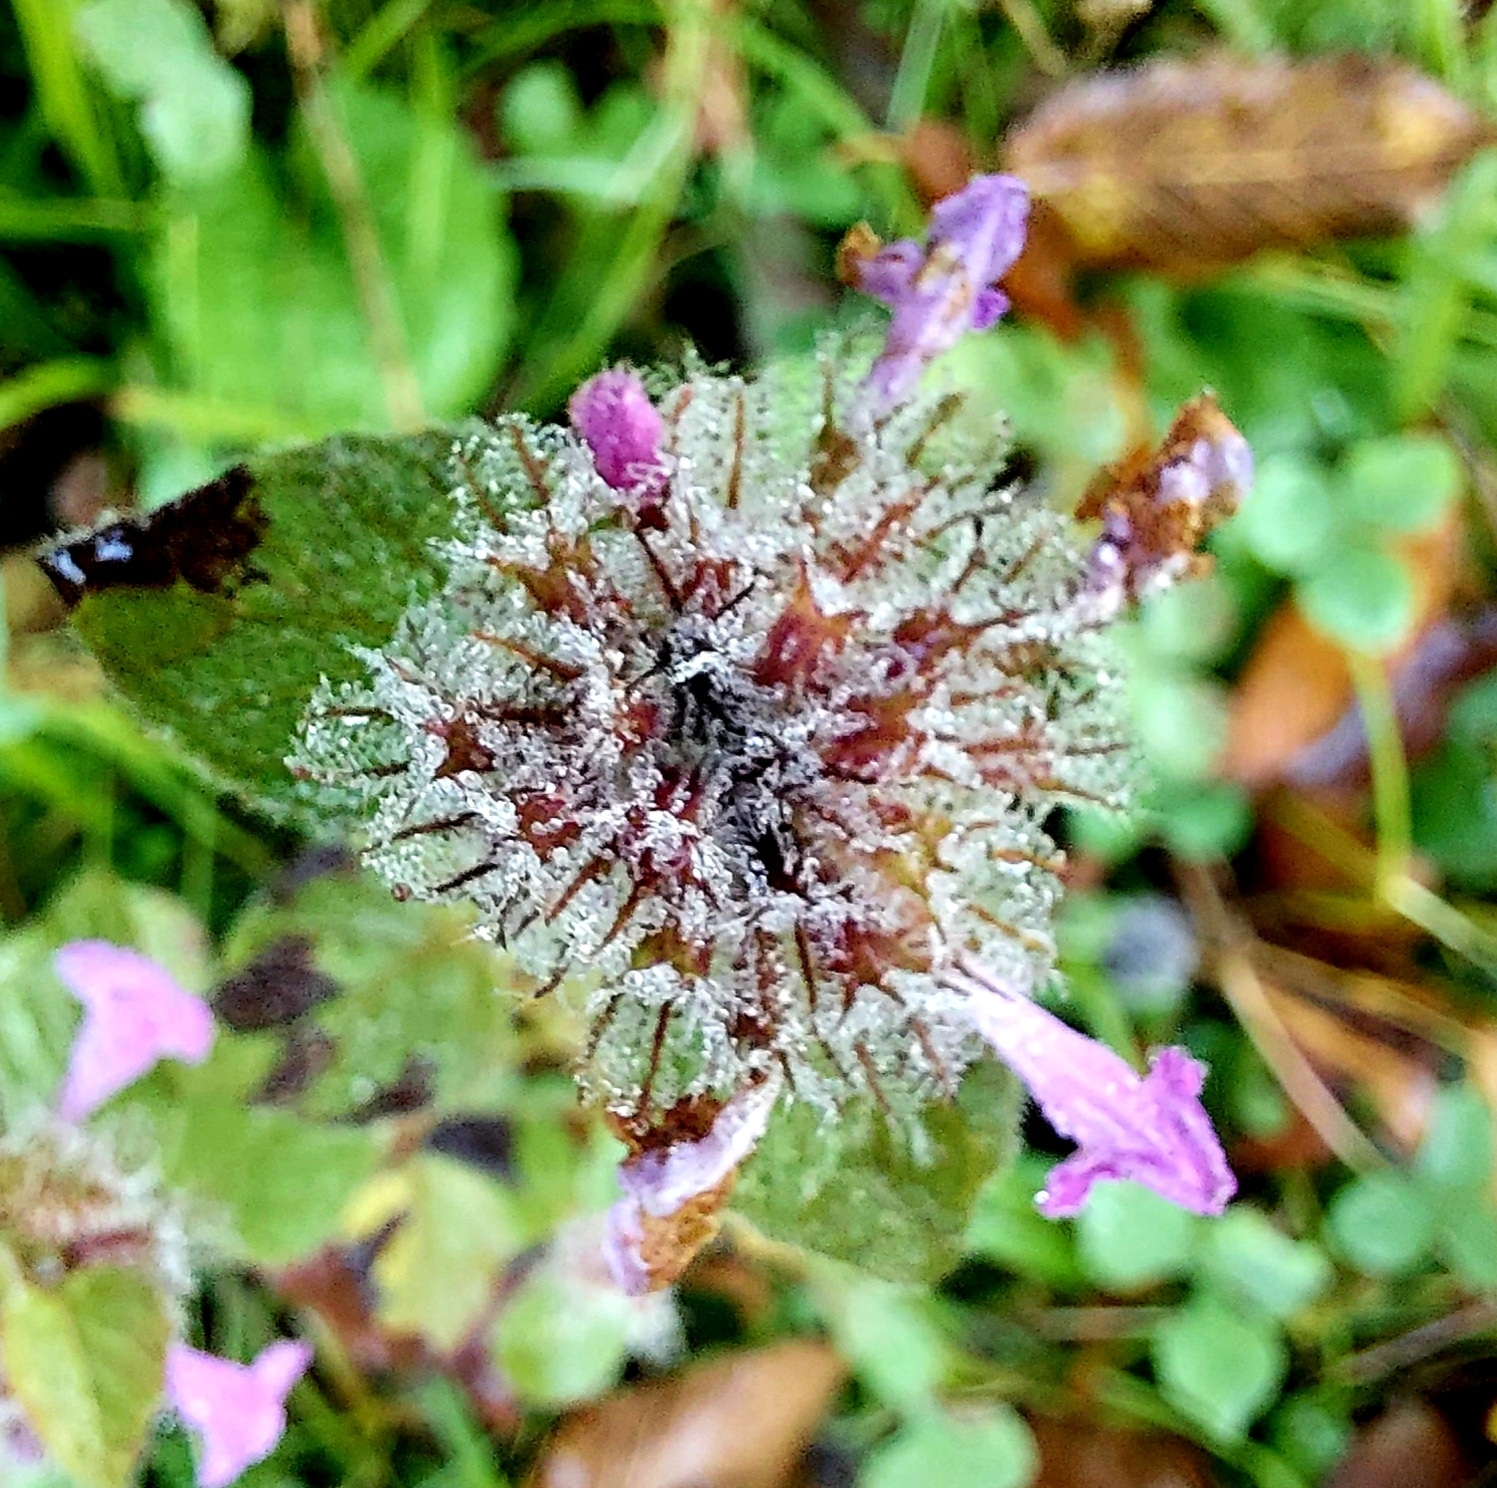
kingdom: Plantae
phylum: Tracheophyta
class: Magnoliopsida
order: Lamiales
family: Lamiaceae
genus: Clinopodium
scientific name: Clinopodium caucasicum
